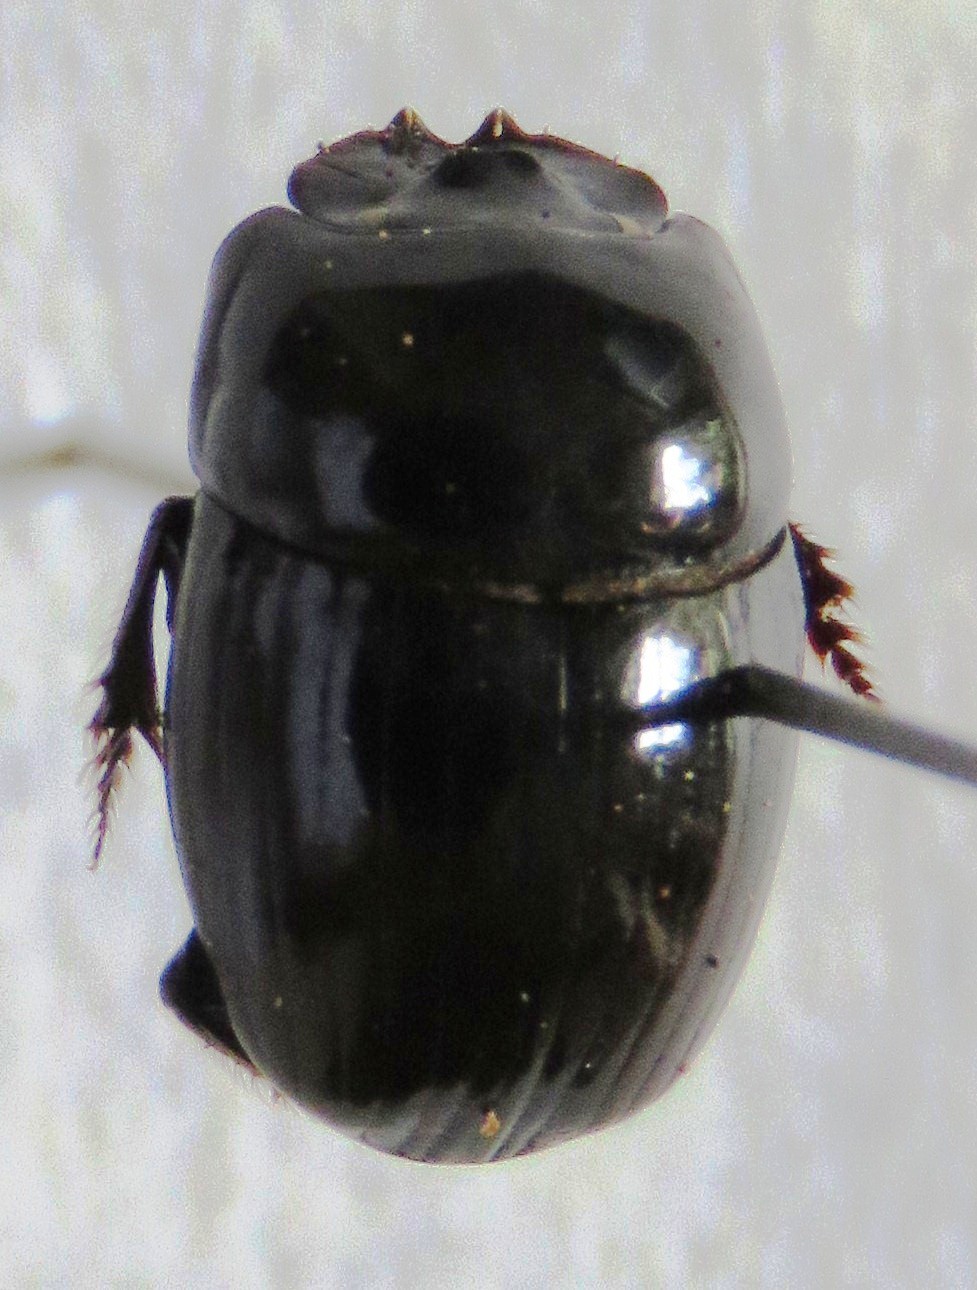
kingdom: Animalia
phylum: Arthropoda
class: Insecta
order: Coleoptera
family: Scarabaeidae
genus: Uroxys
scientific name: Uroxys gorgon
